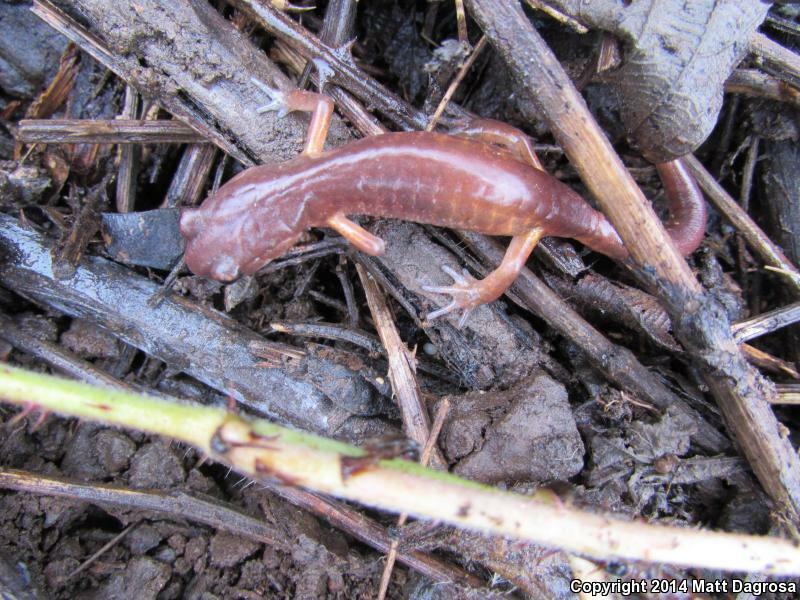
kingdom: Animalia
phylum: Chordata
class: Amphibia
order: Caudata
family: Plethodontidae
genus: Ensatina
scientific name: Ensatina eschscholtzii
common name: Ensatina
